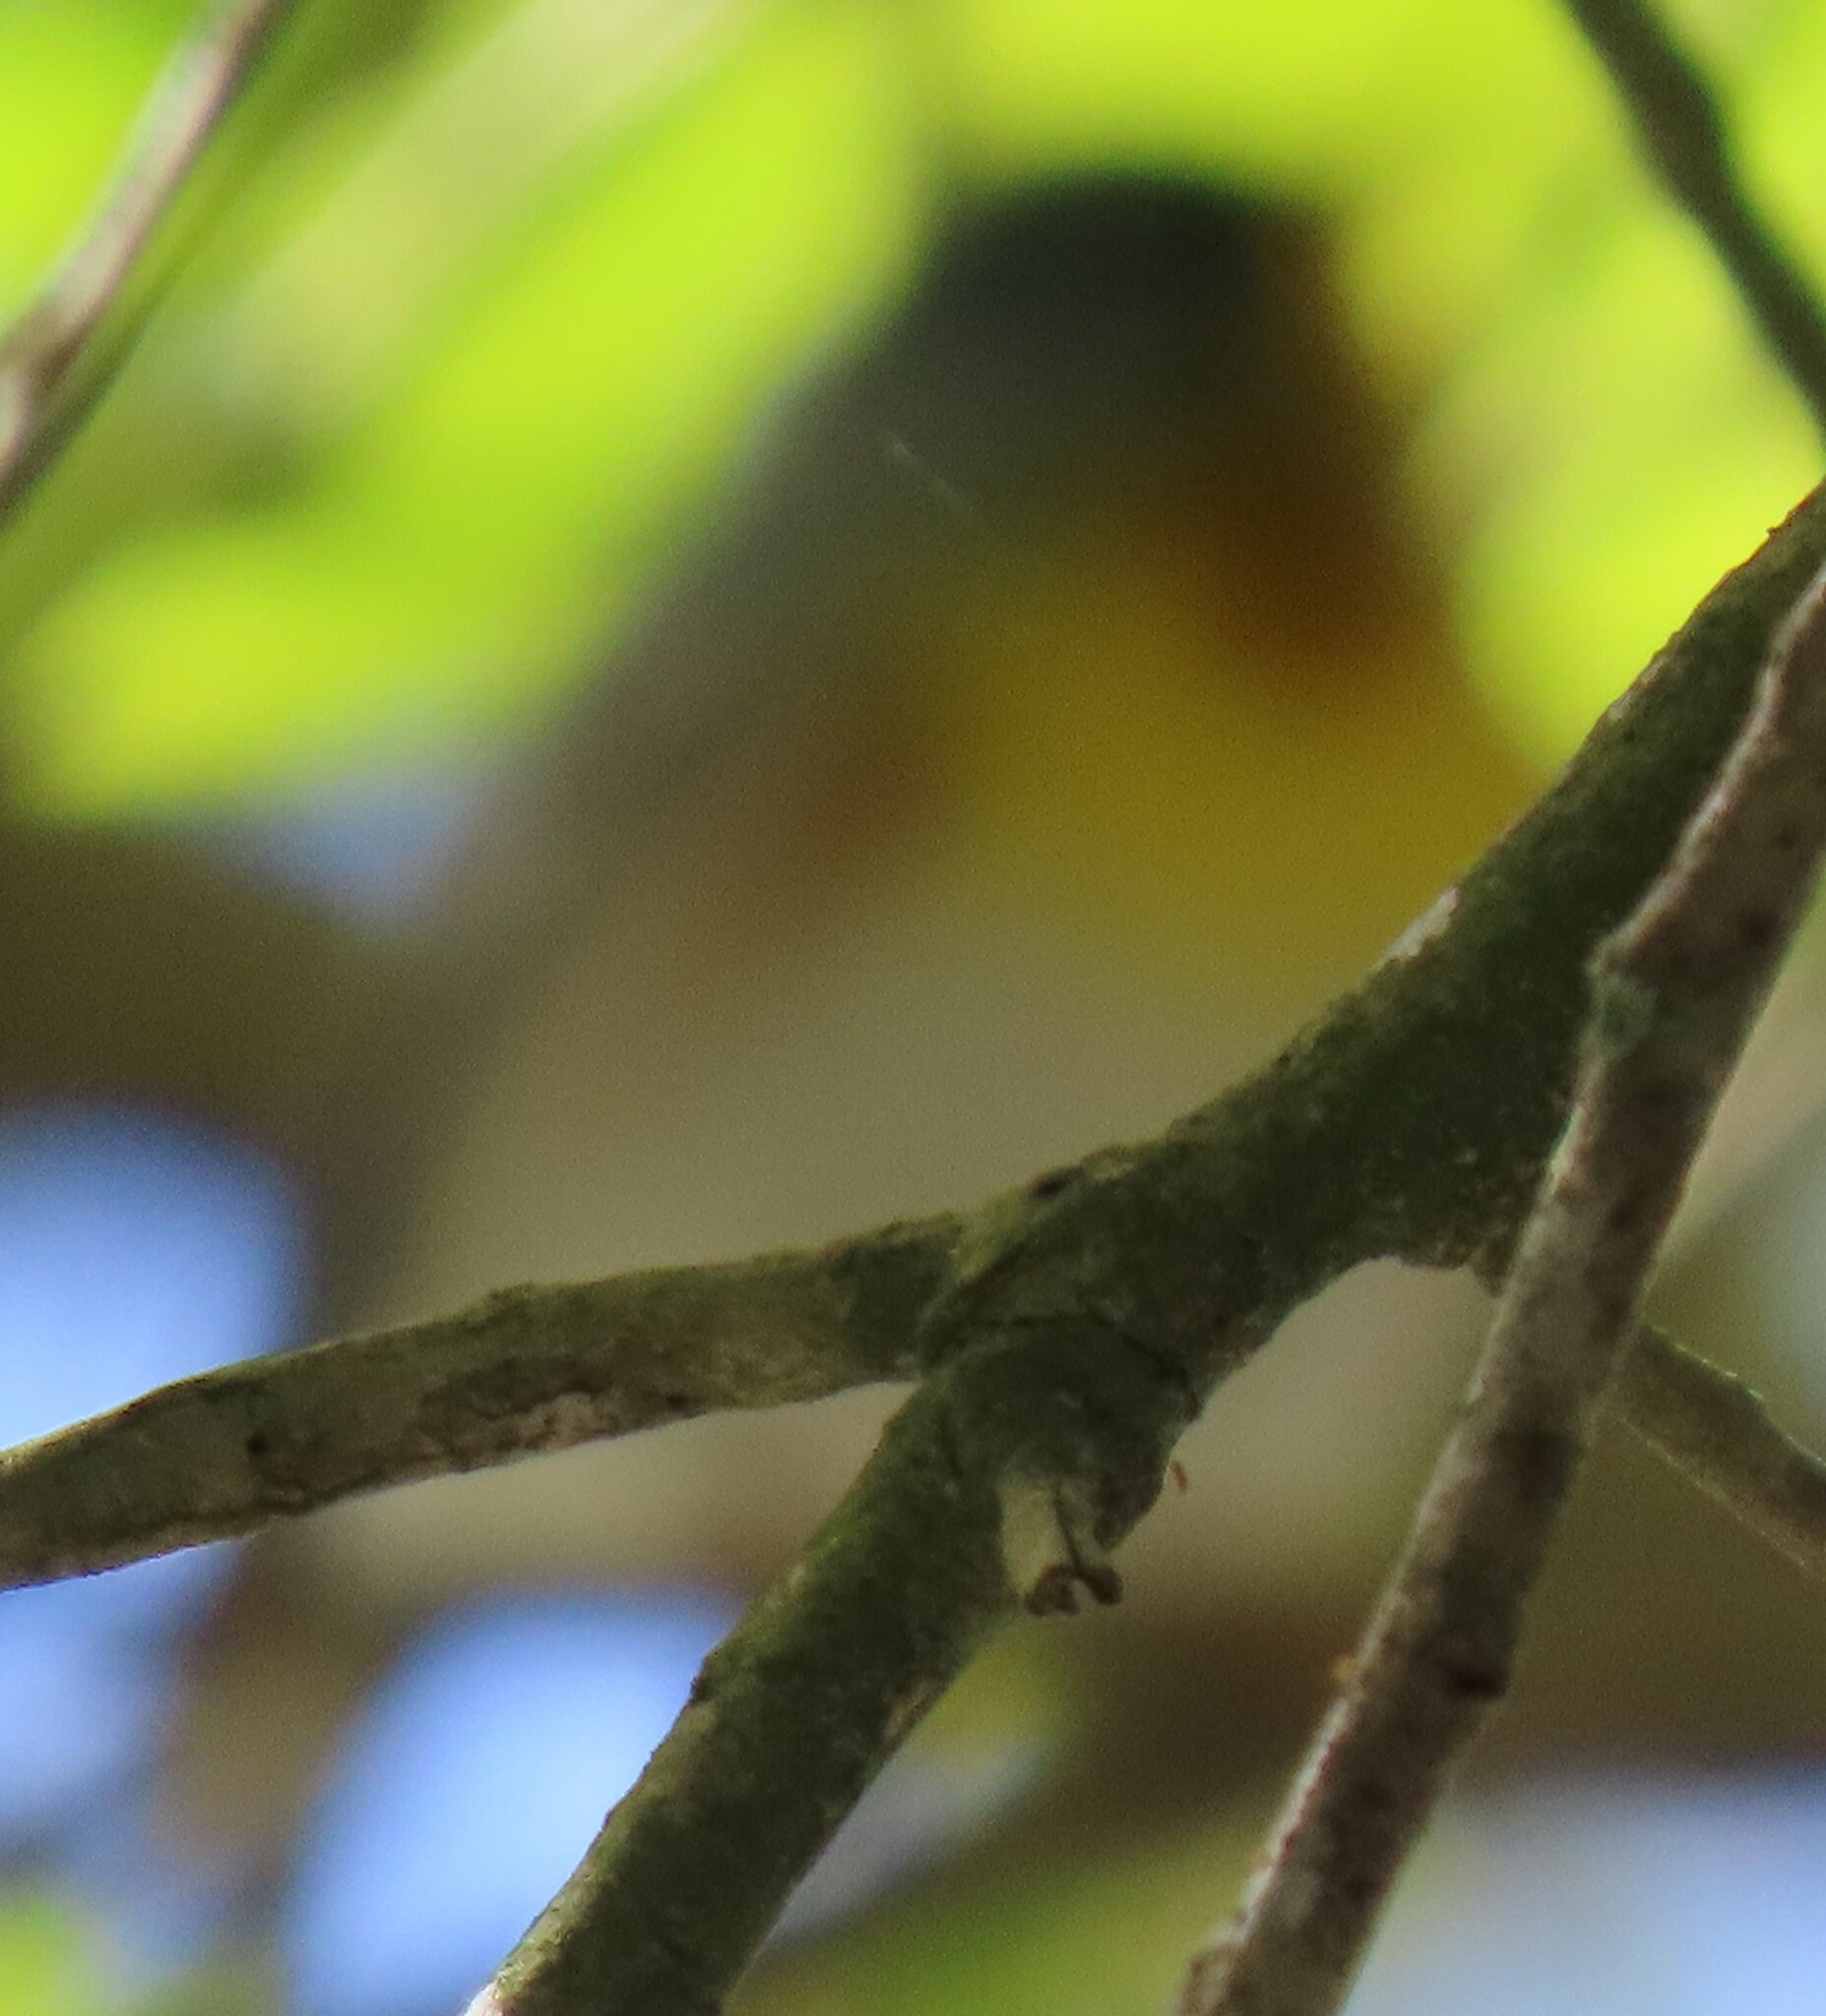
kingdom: Animalia
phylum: Chordata
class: Aves
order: Passeriformes
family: Parulidae
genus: Setophaga
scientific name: Setophaga americana
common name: Northern parula
